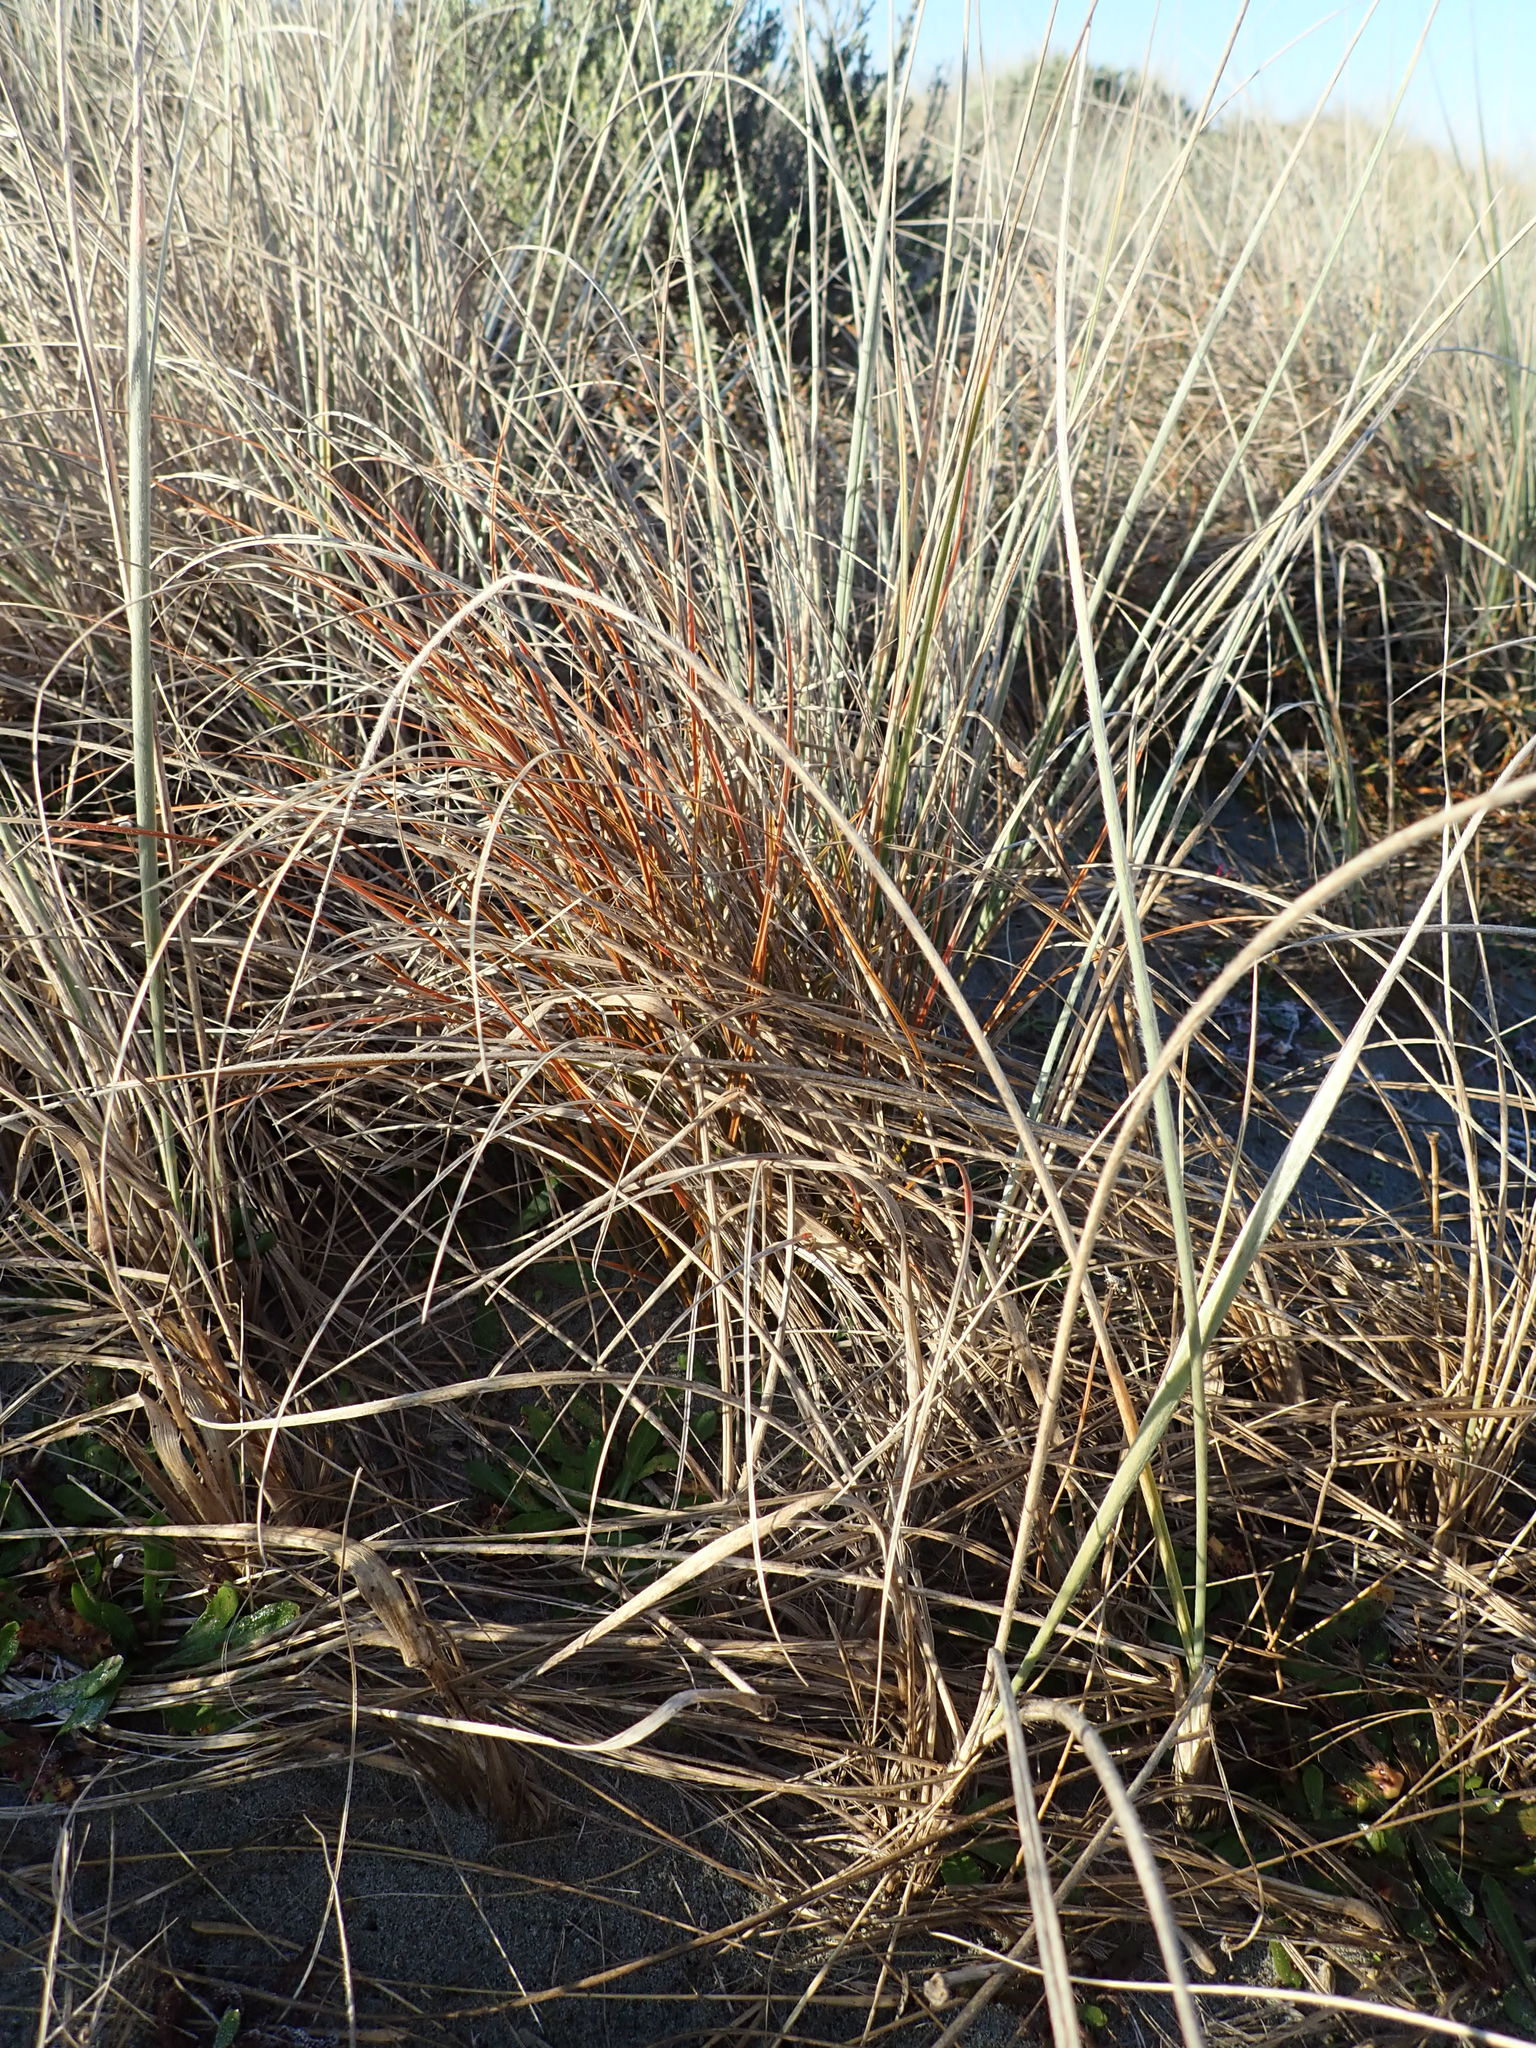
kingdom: Plantae
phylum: Tracheophyta
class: Liliopsida
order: Poales
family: Cyperaceae
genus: Carex
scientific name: Carex testacea
